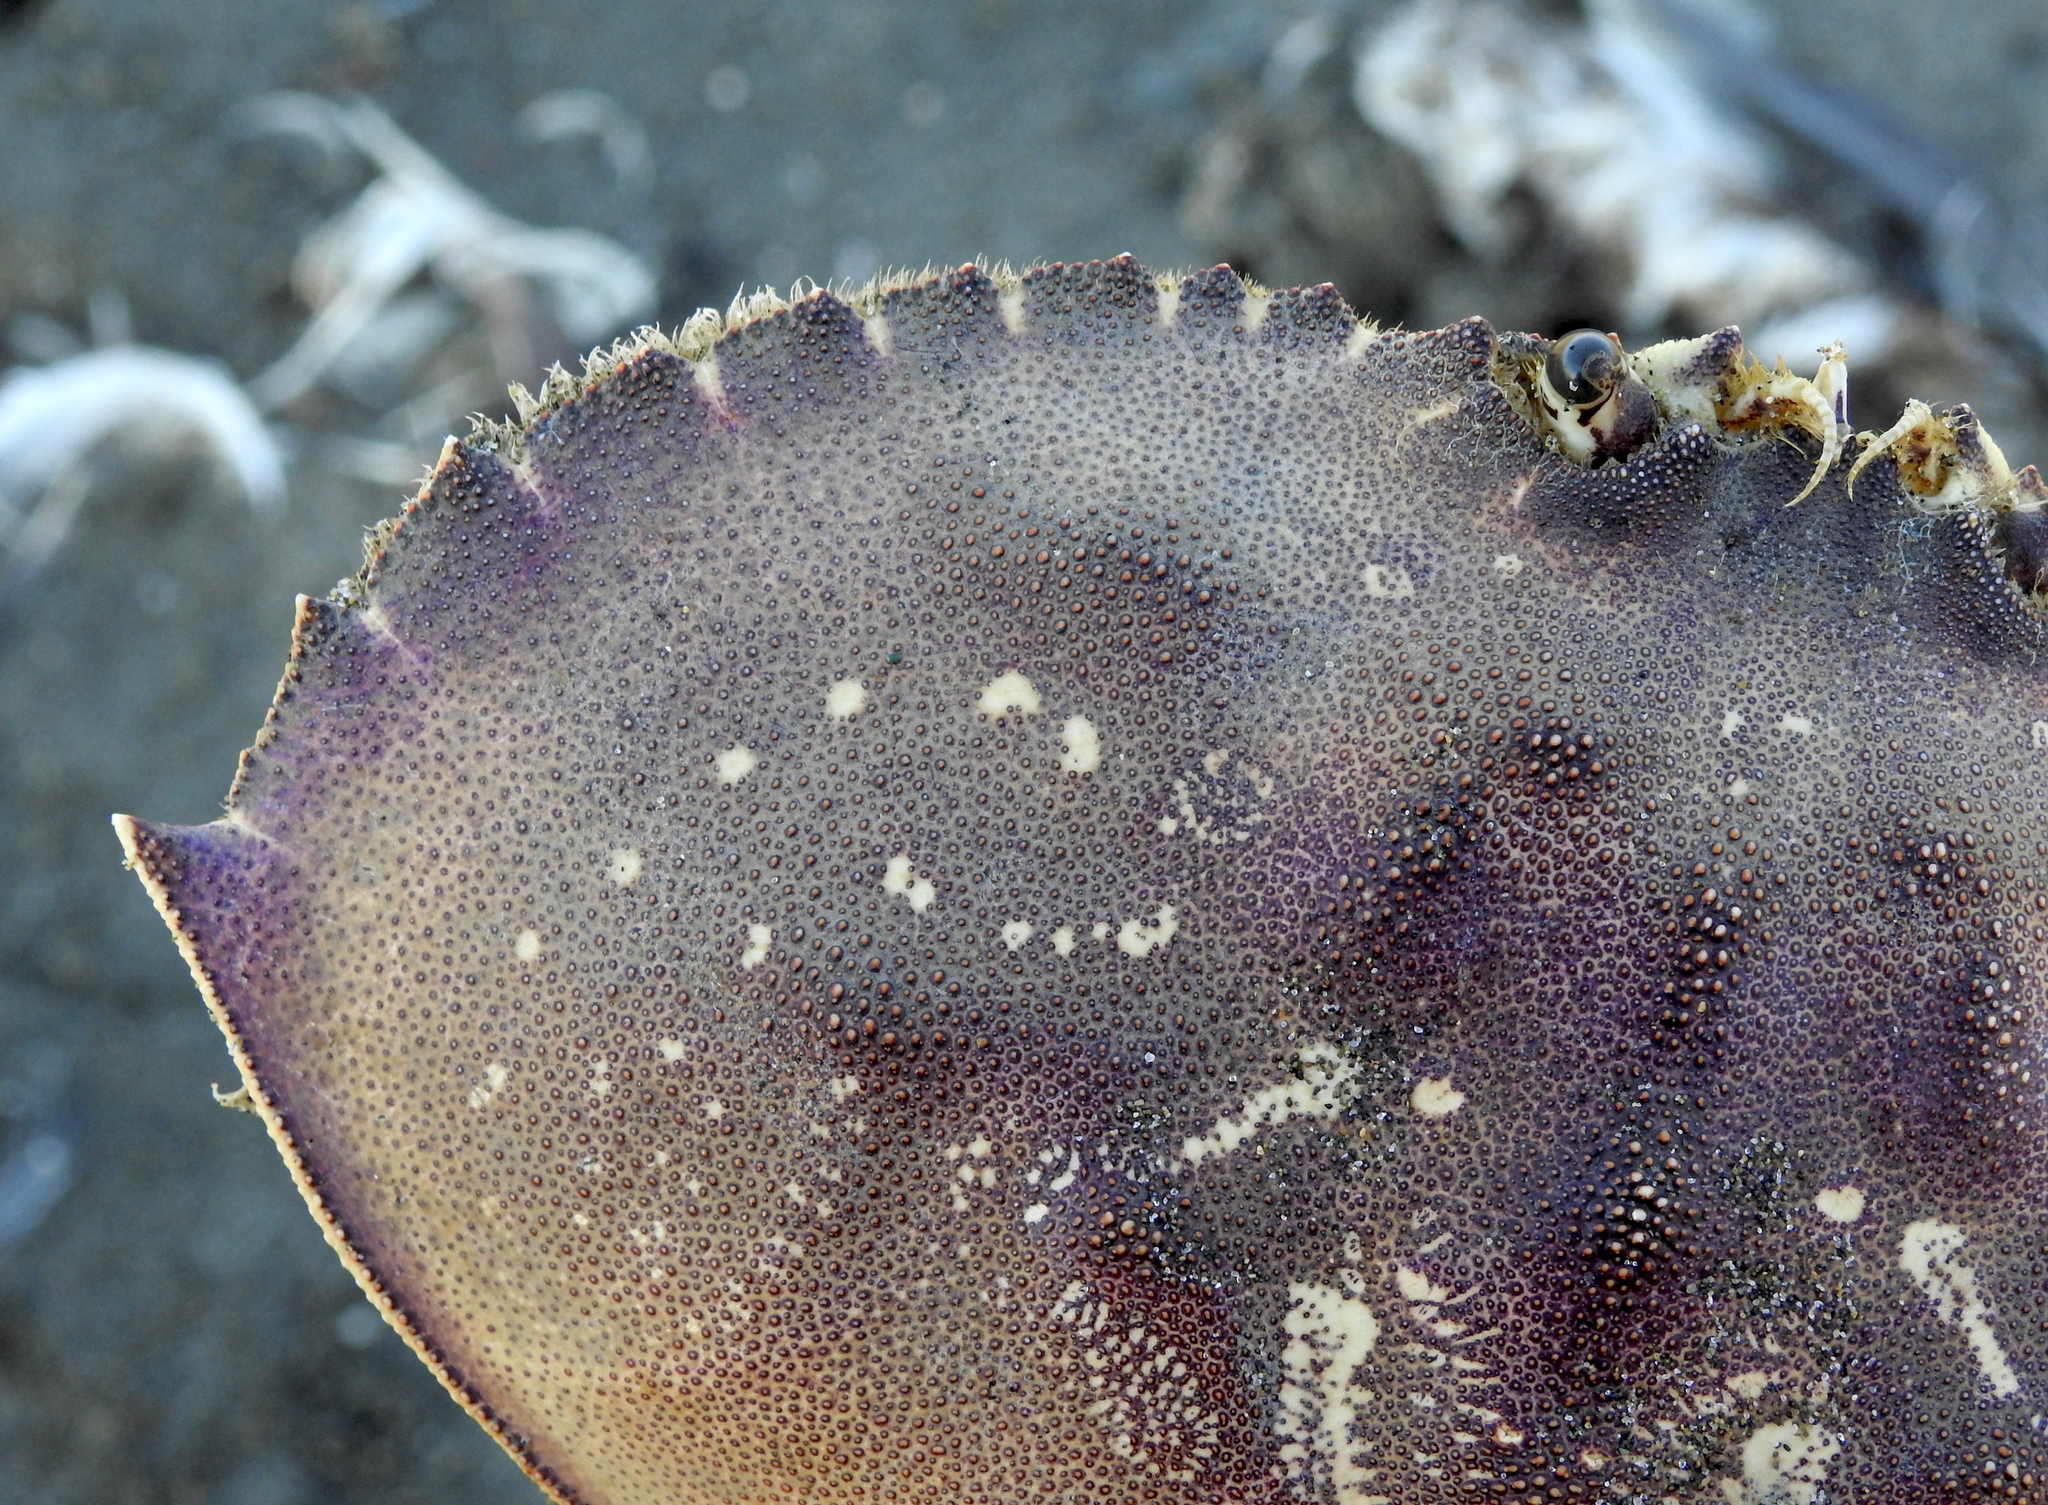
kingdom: Animalia
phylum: Arthropoda
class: Malacostraca
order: Decapoda
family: Cancridae
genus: Metacarcinus
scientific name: Metacarcinus magister
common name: Californian crab
